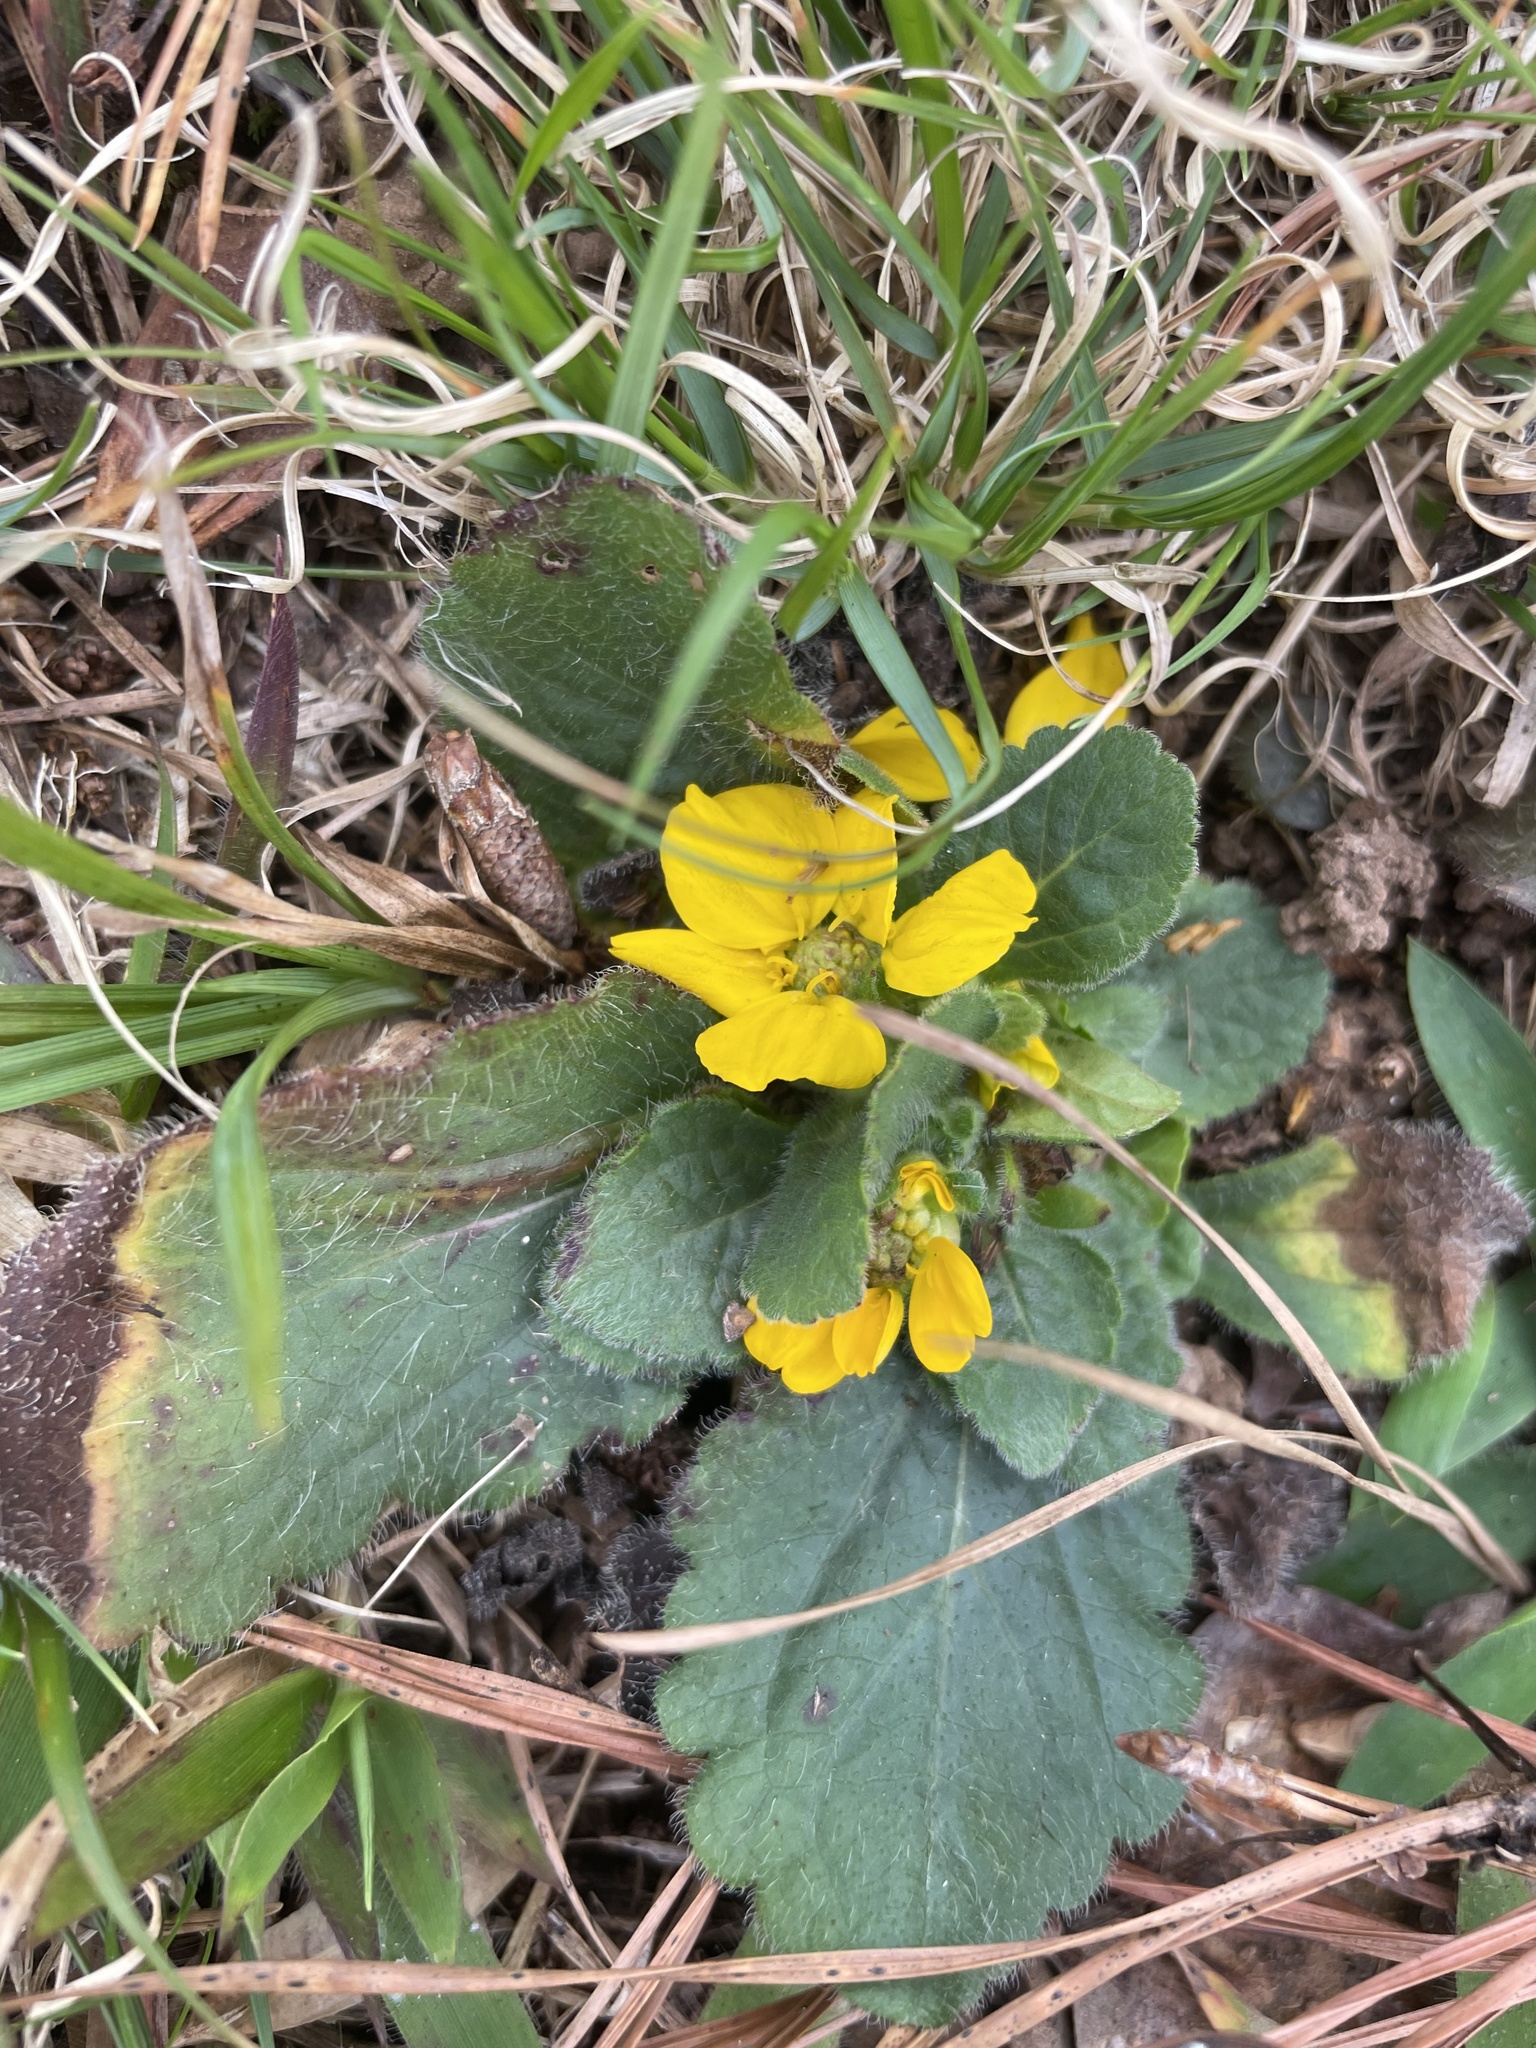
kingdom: Plantae
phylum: Tracheophyta
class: Magnoliopsida
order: Asterales
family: Asteraceae
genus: Chrysogonum
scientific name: Chrysogonum virginianum
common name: Golden-knee
